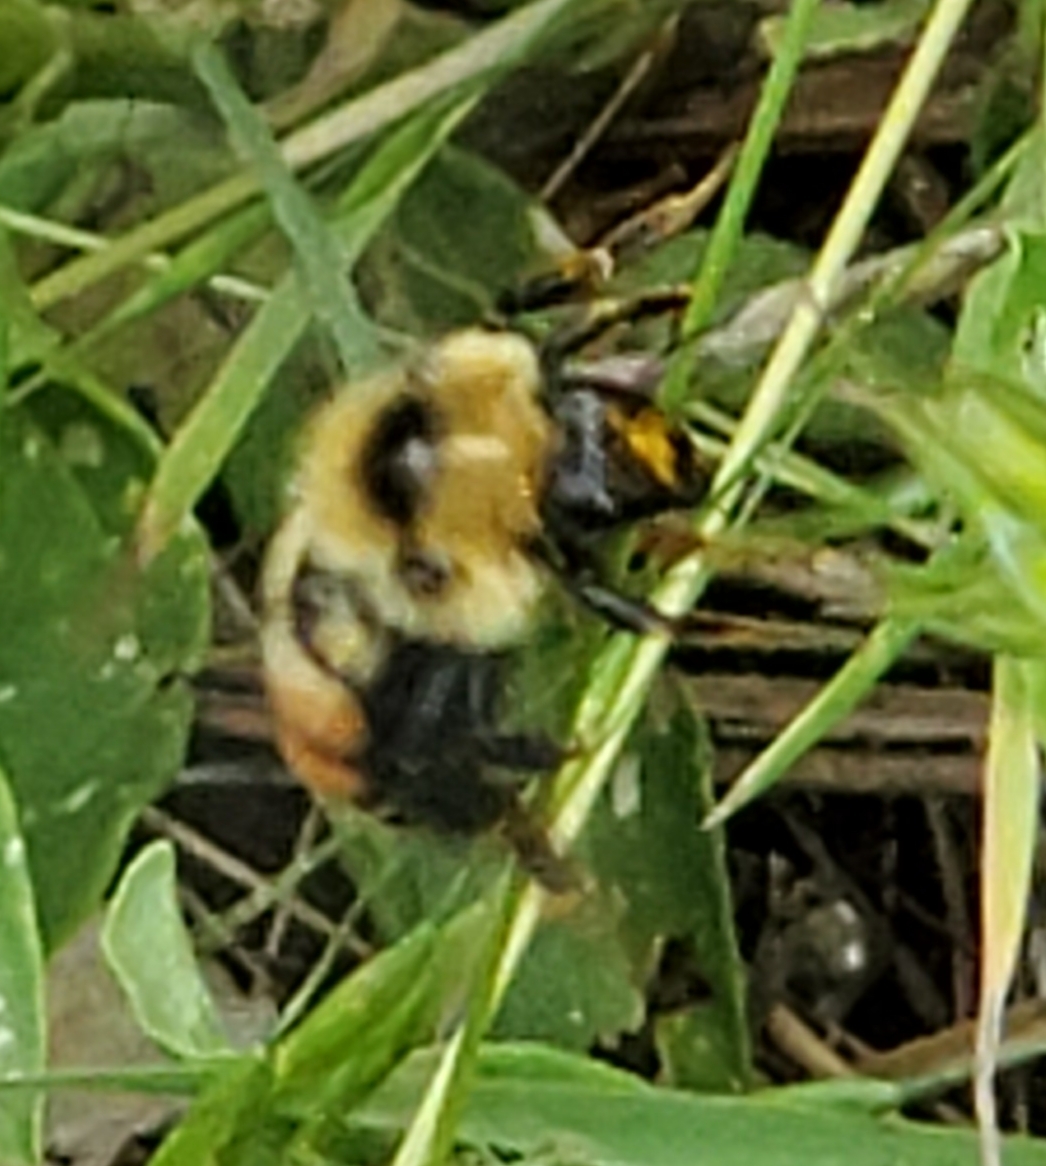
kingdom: Animalia
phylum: Arthropoda
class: Insecta
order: Hymenoptera
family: Apidae
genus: Bombus
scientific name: Bombus rufocinctus
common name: Red-belted bumble bee
